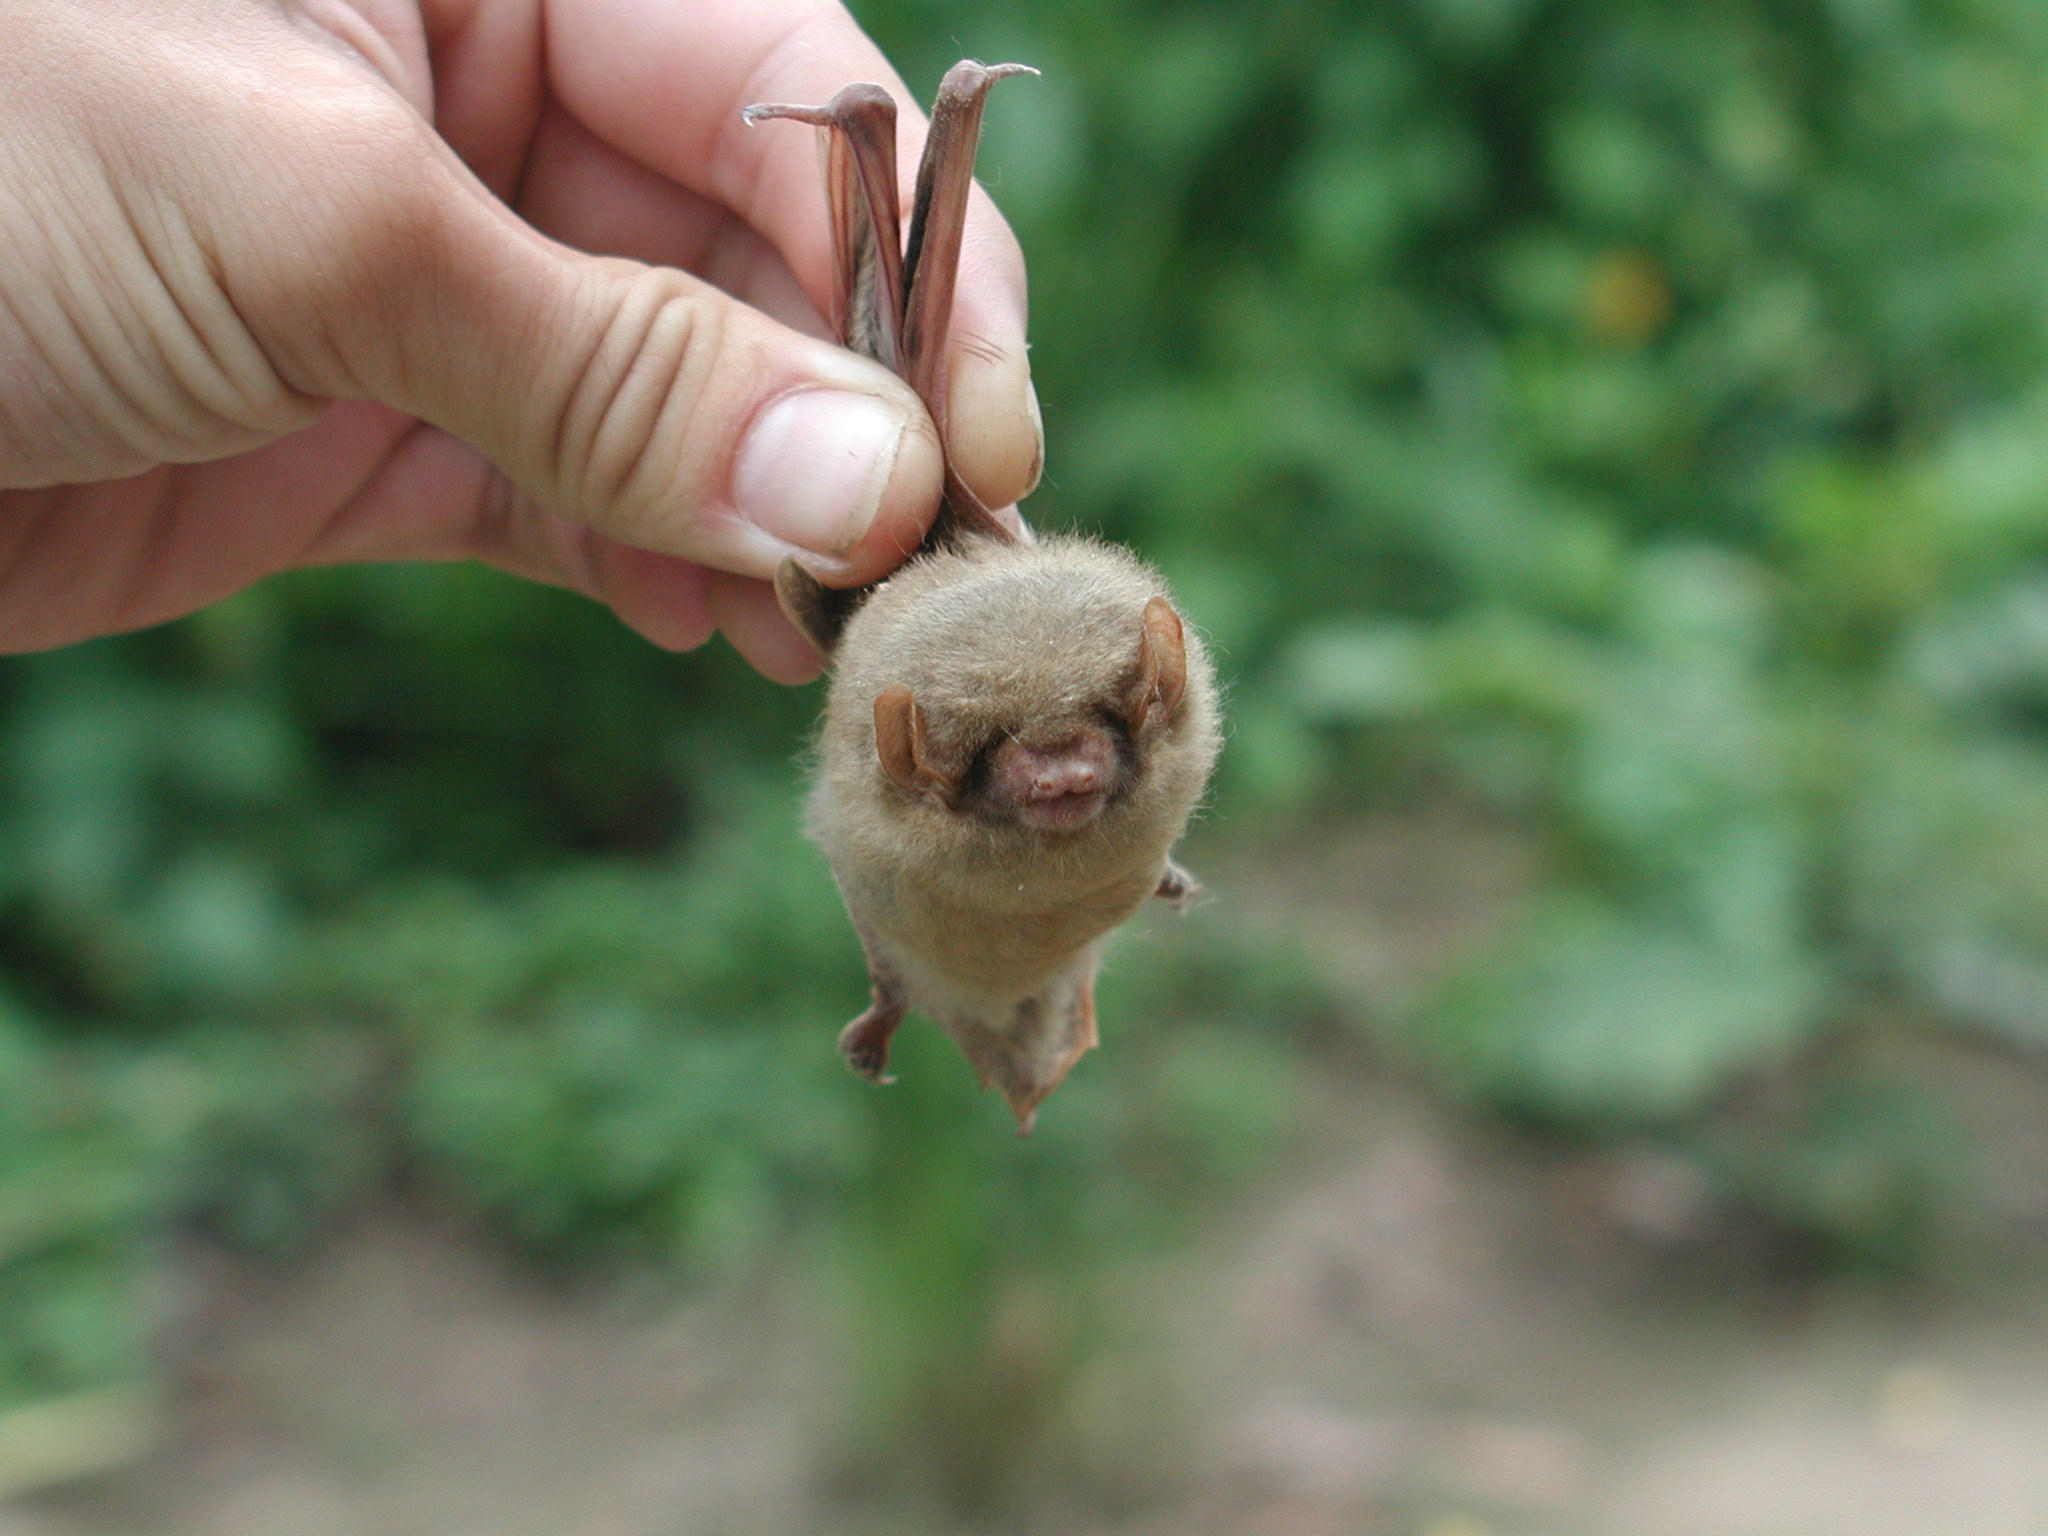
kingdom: Animalia
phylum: Chordata
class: Mammalia
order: Chiroptera
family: Vespertilionidae
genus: Dasypterus
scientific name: Dasypterus ega
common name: Southern yellow bat
